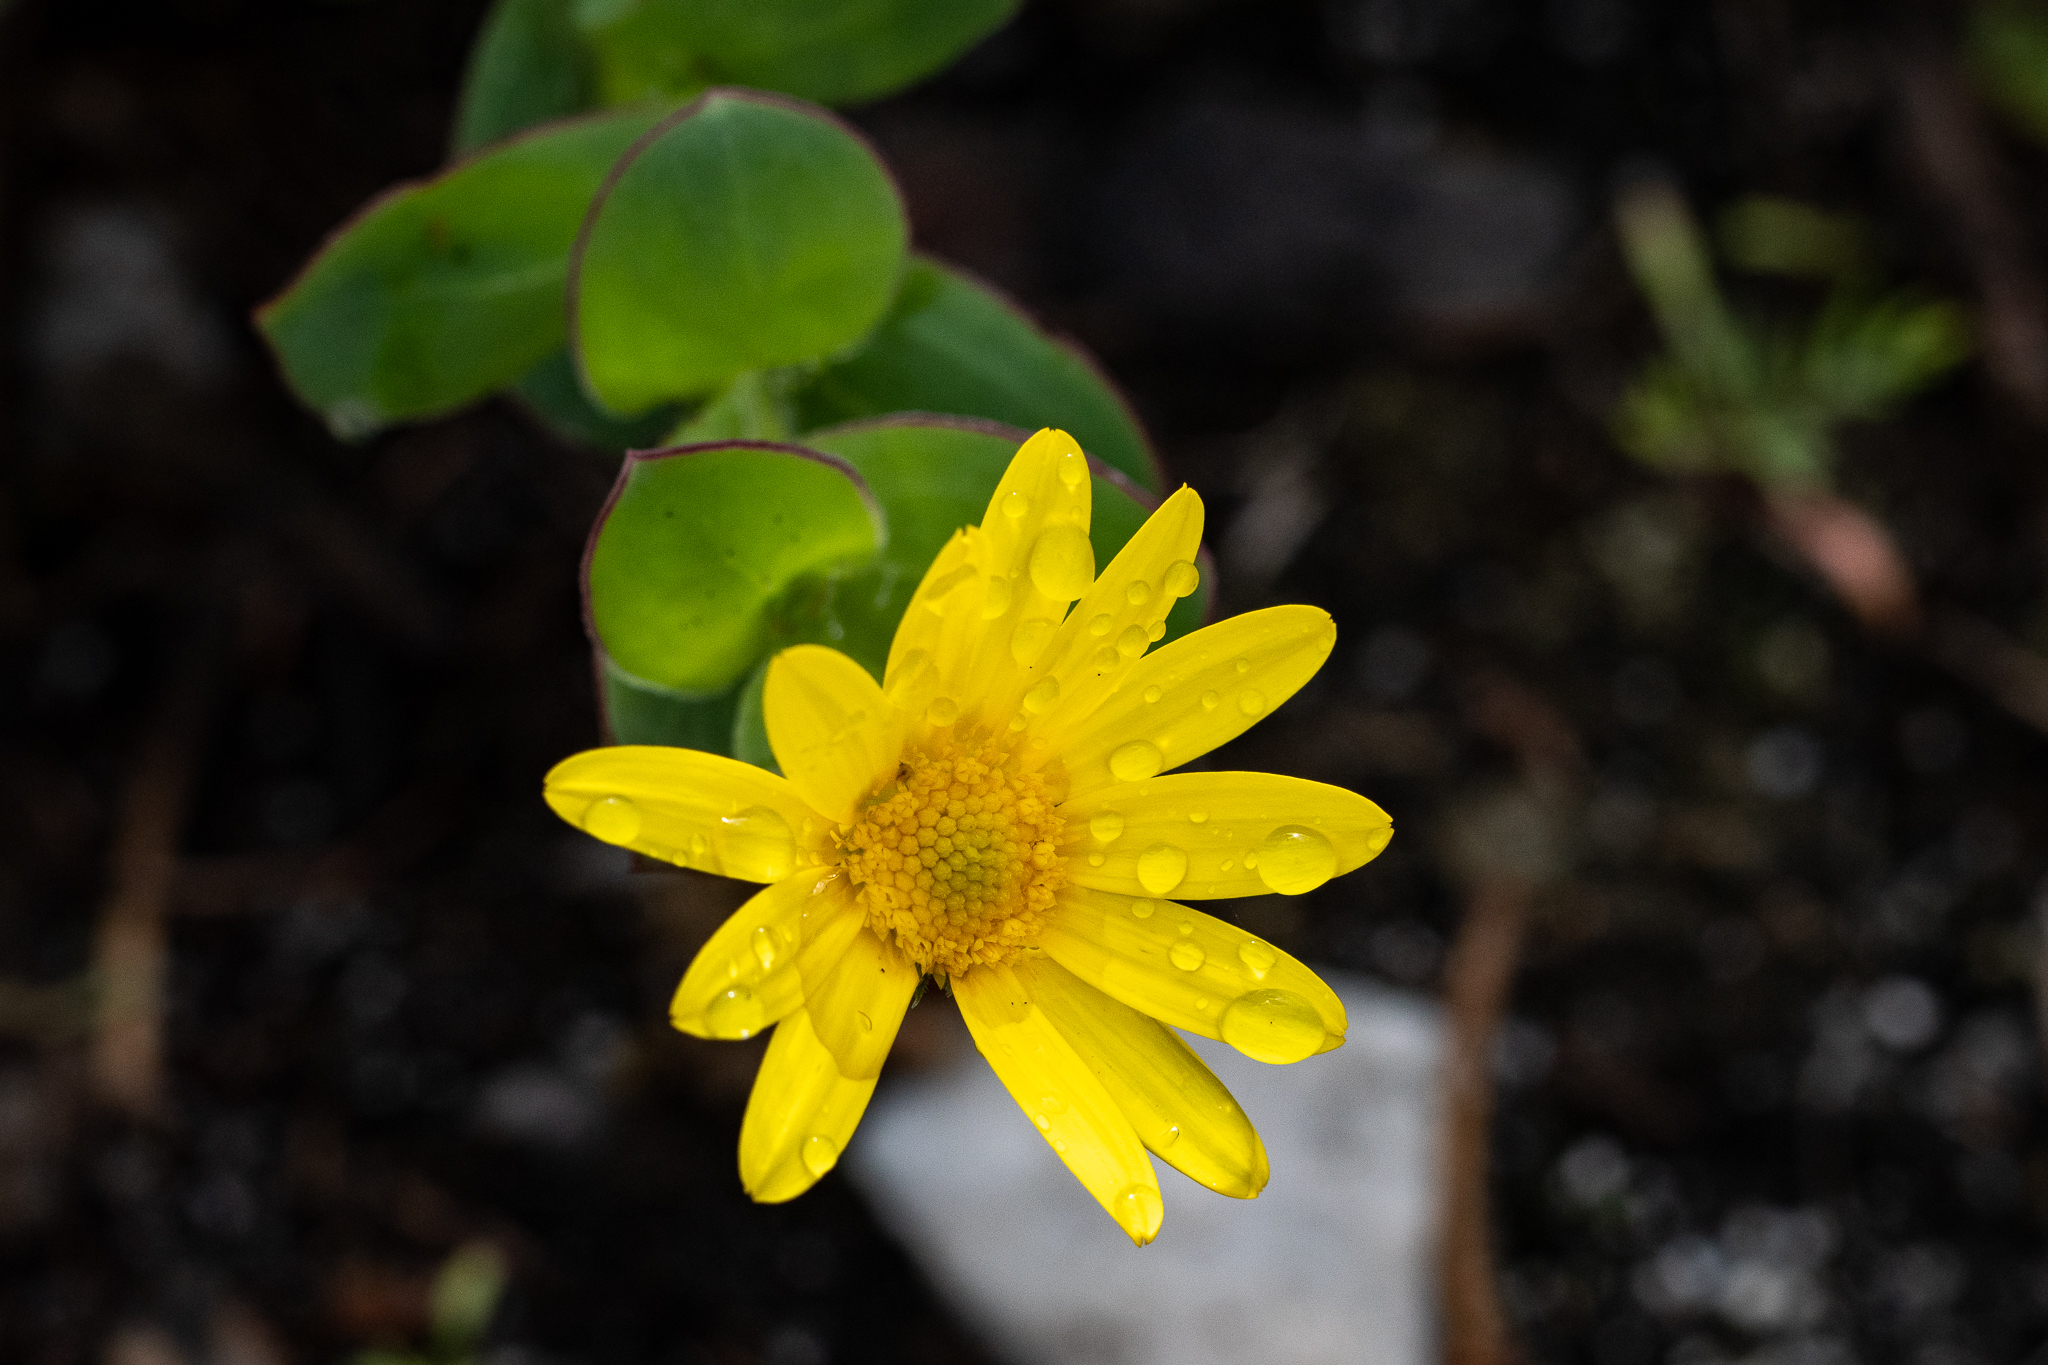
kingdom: Plantae
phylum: Tracheophyta
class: Magnoliopsida
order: Asterales
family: Asteraceae
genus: Osteospermum
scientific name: Osteospermum rotundifolium
